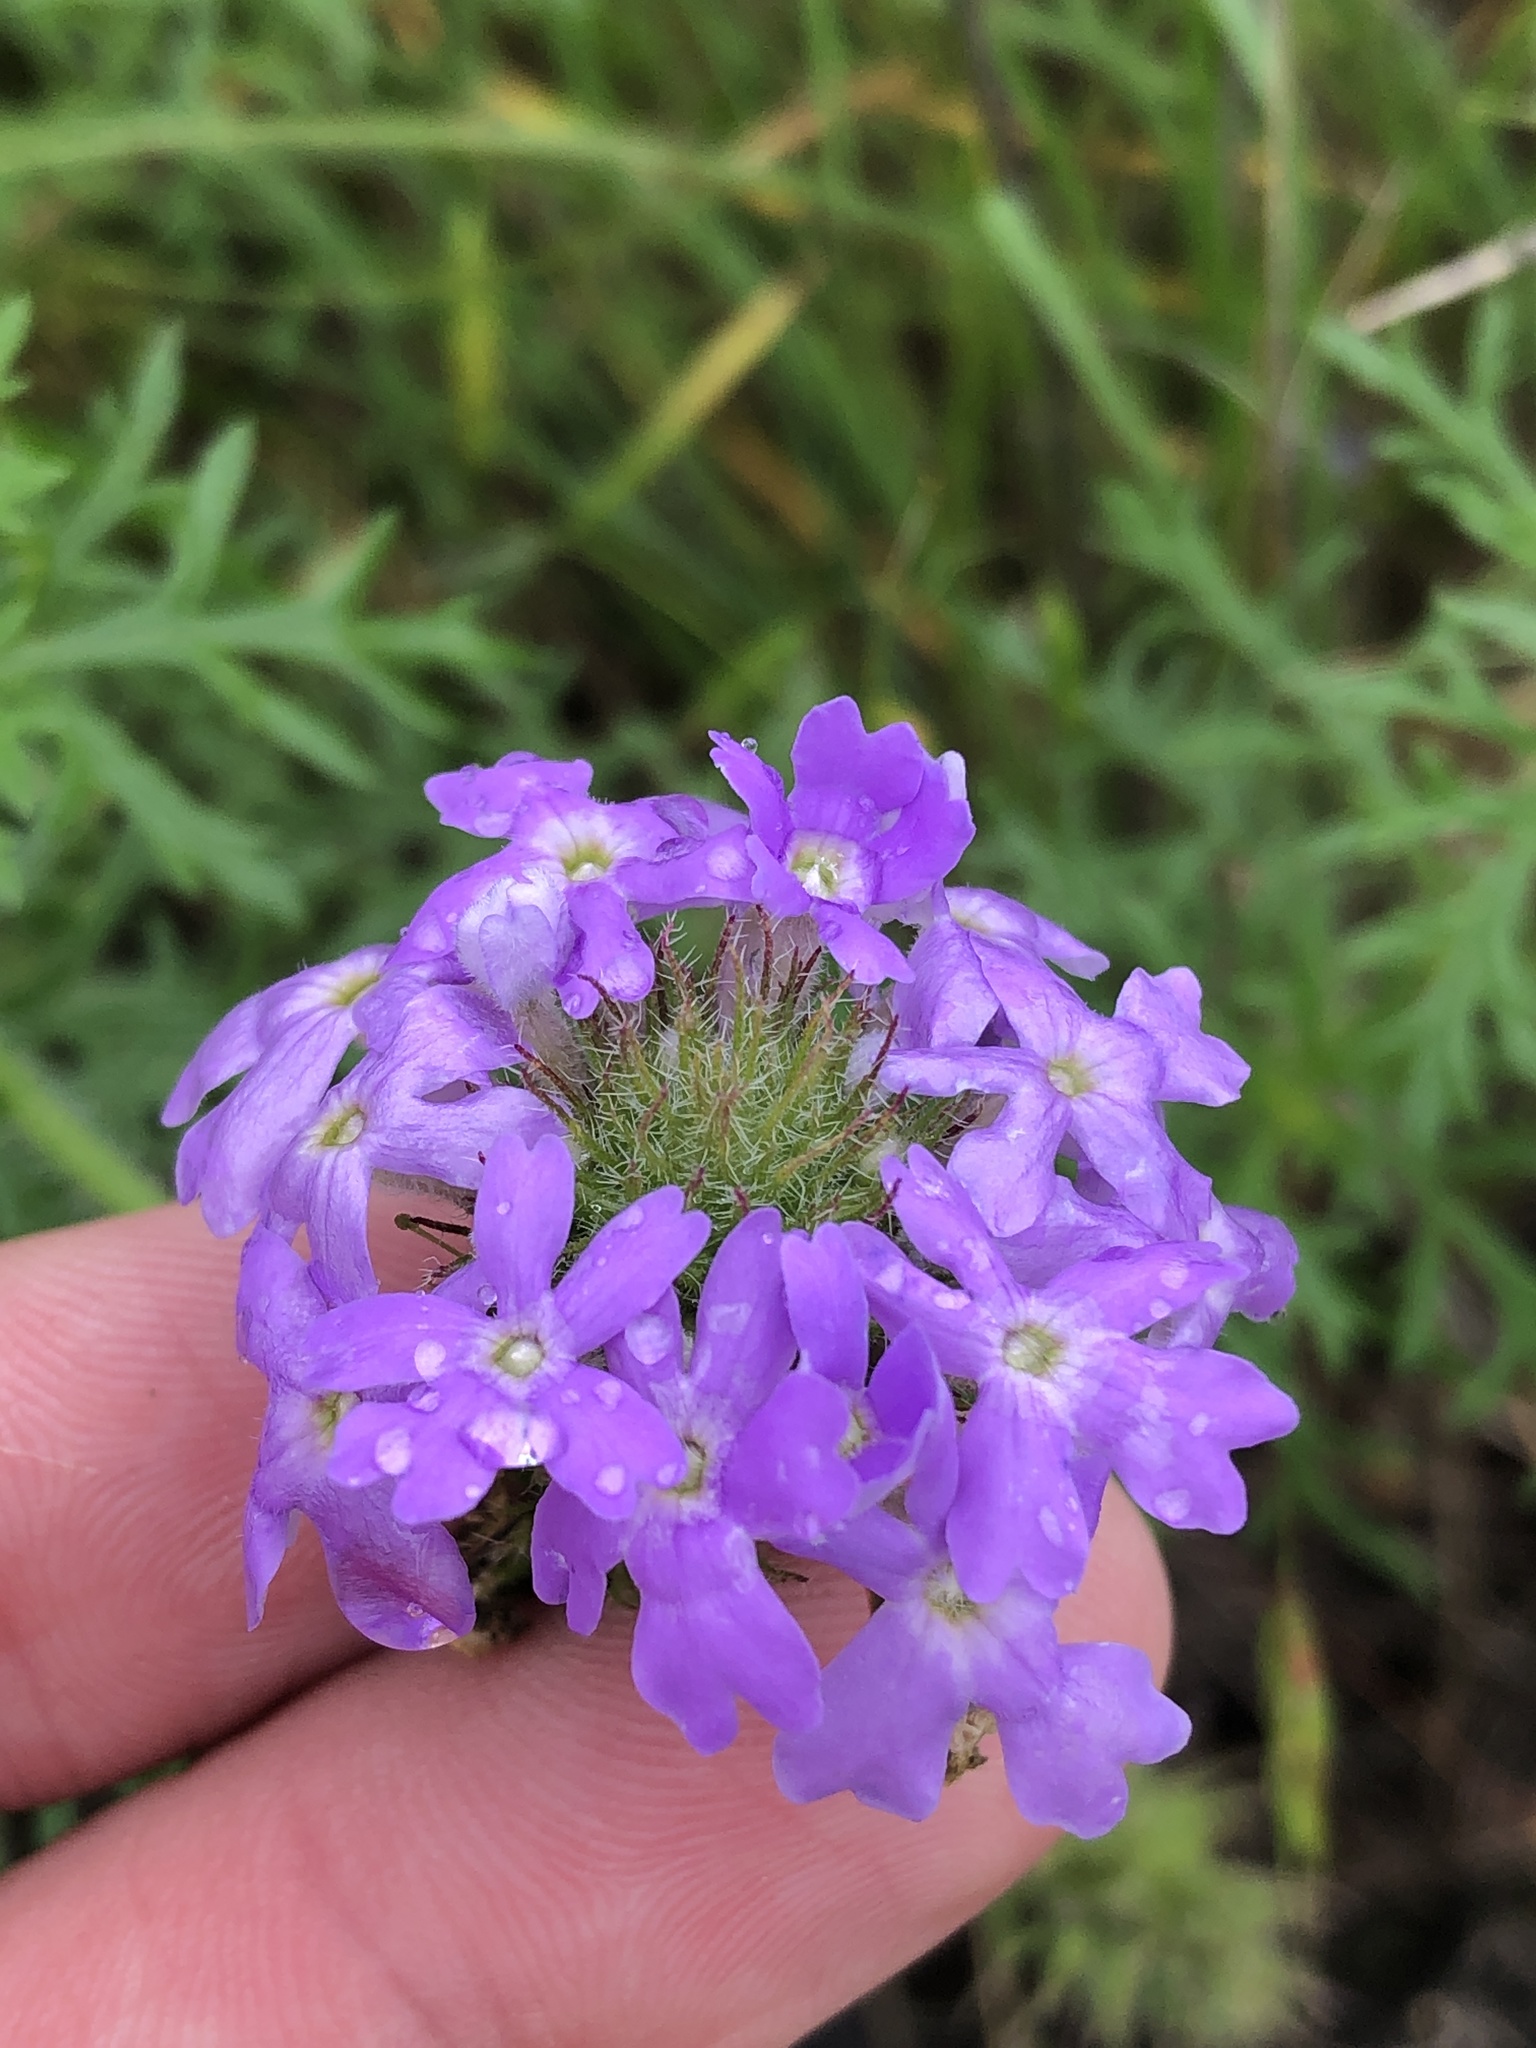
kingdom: Plantae
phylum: Tracheophyta
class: Magnoliopsida
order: Lamiales
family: Verbenaceae
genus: Verbena
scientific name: Verbena bipinnatifida
